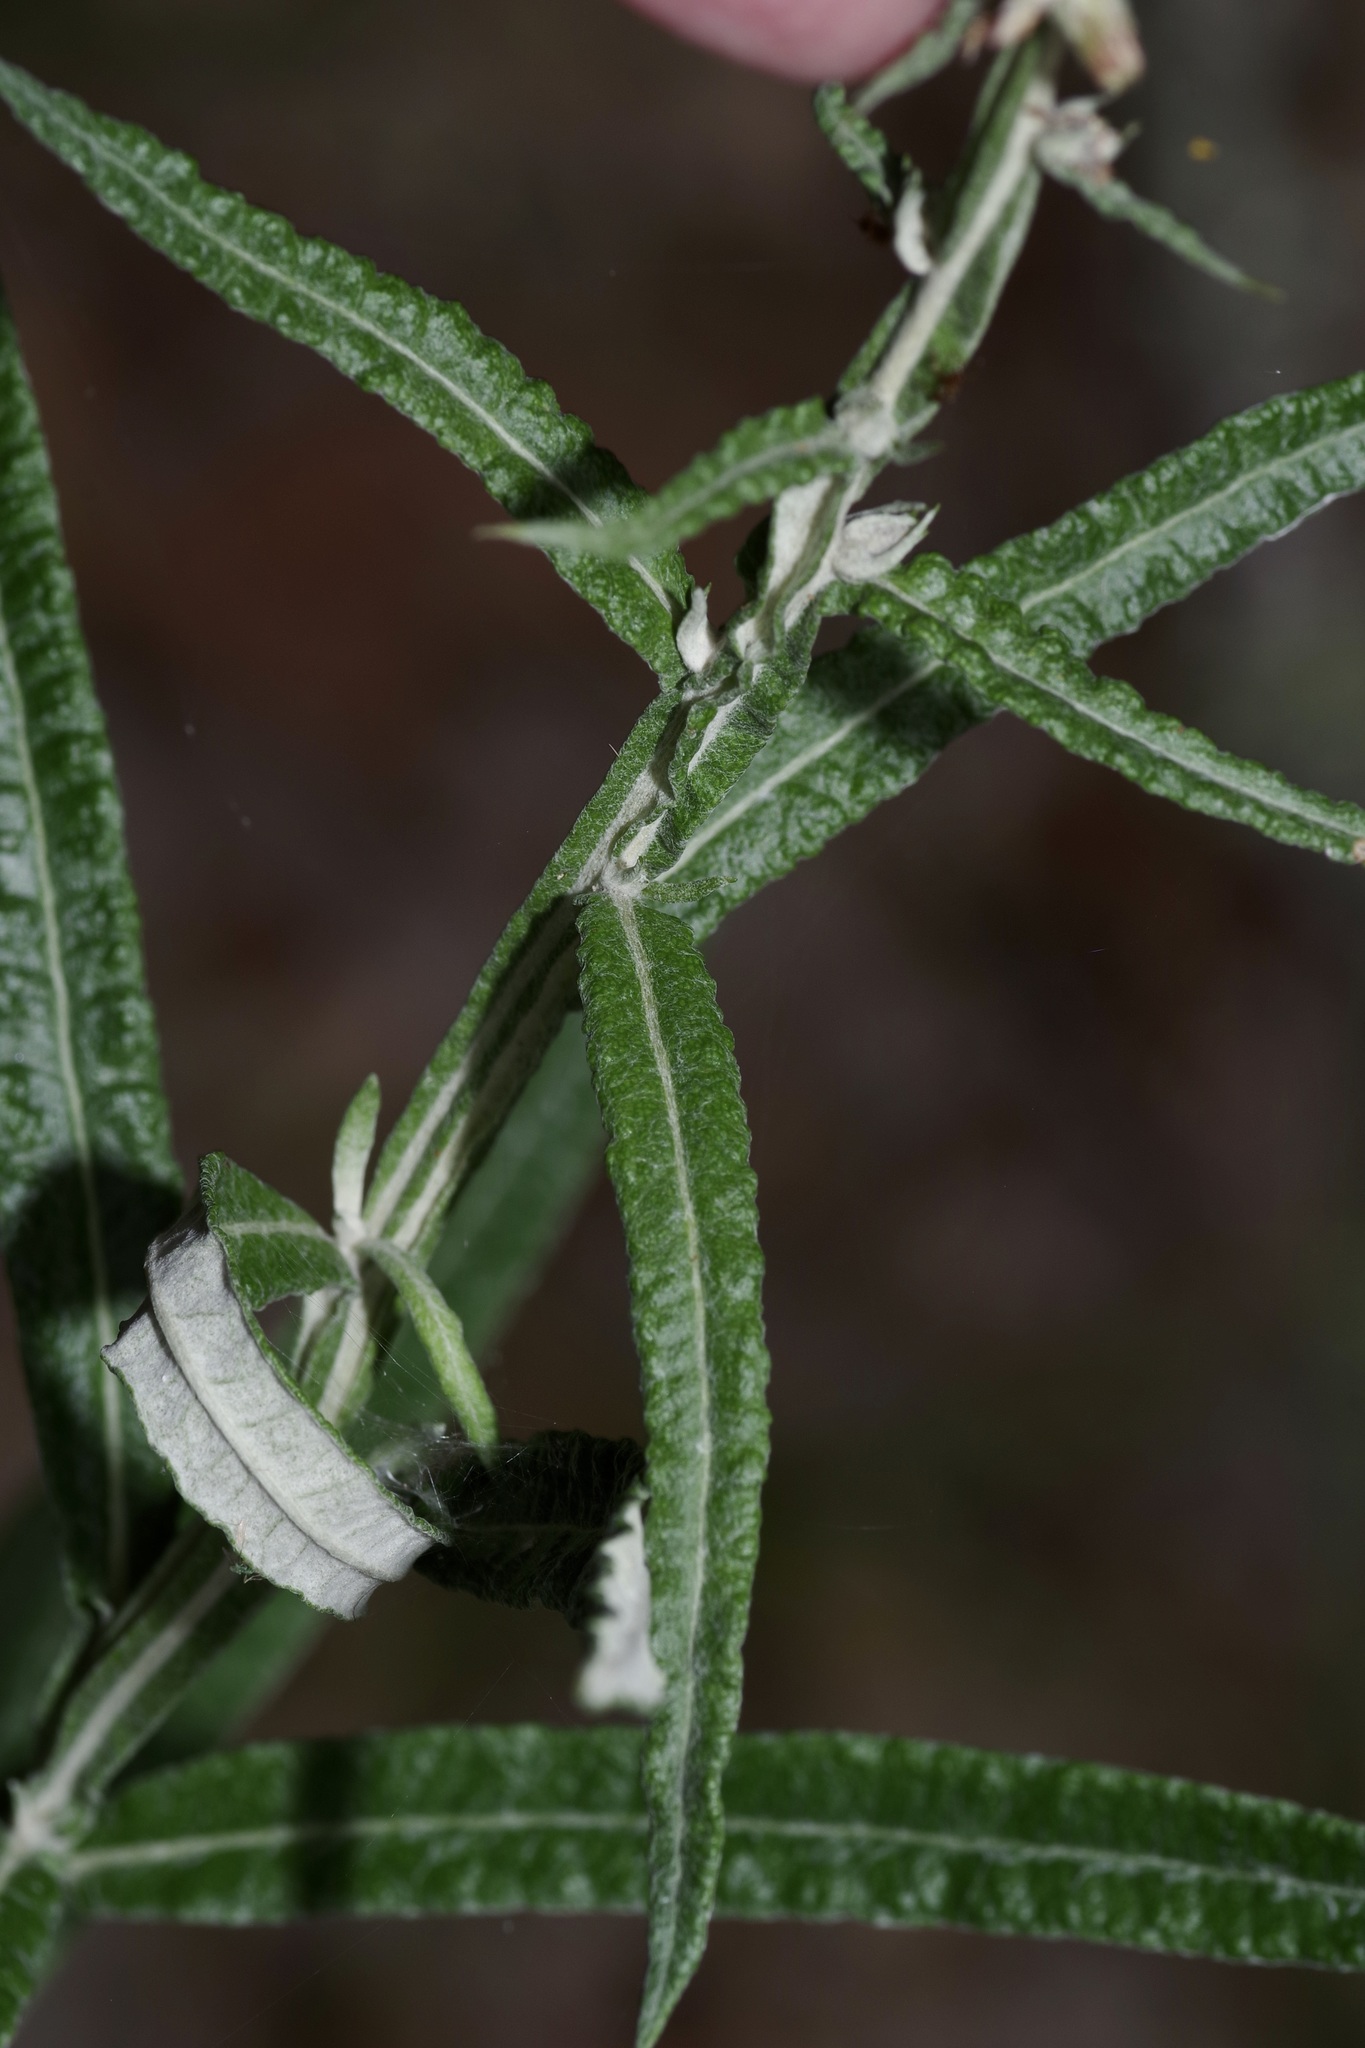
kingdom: Plantae
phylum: Tracheophyta
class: Magnoliopsida
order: Asterales
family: Asteraceae
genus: Pterocaulon
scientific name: Pterocaulon virgatum
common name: Wand blackroot
